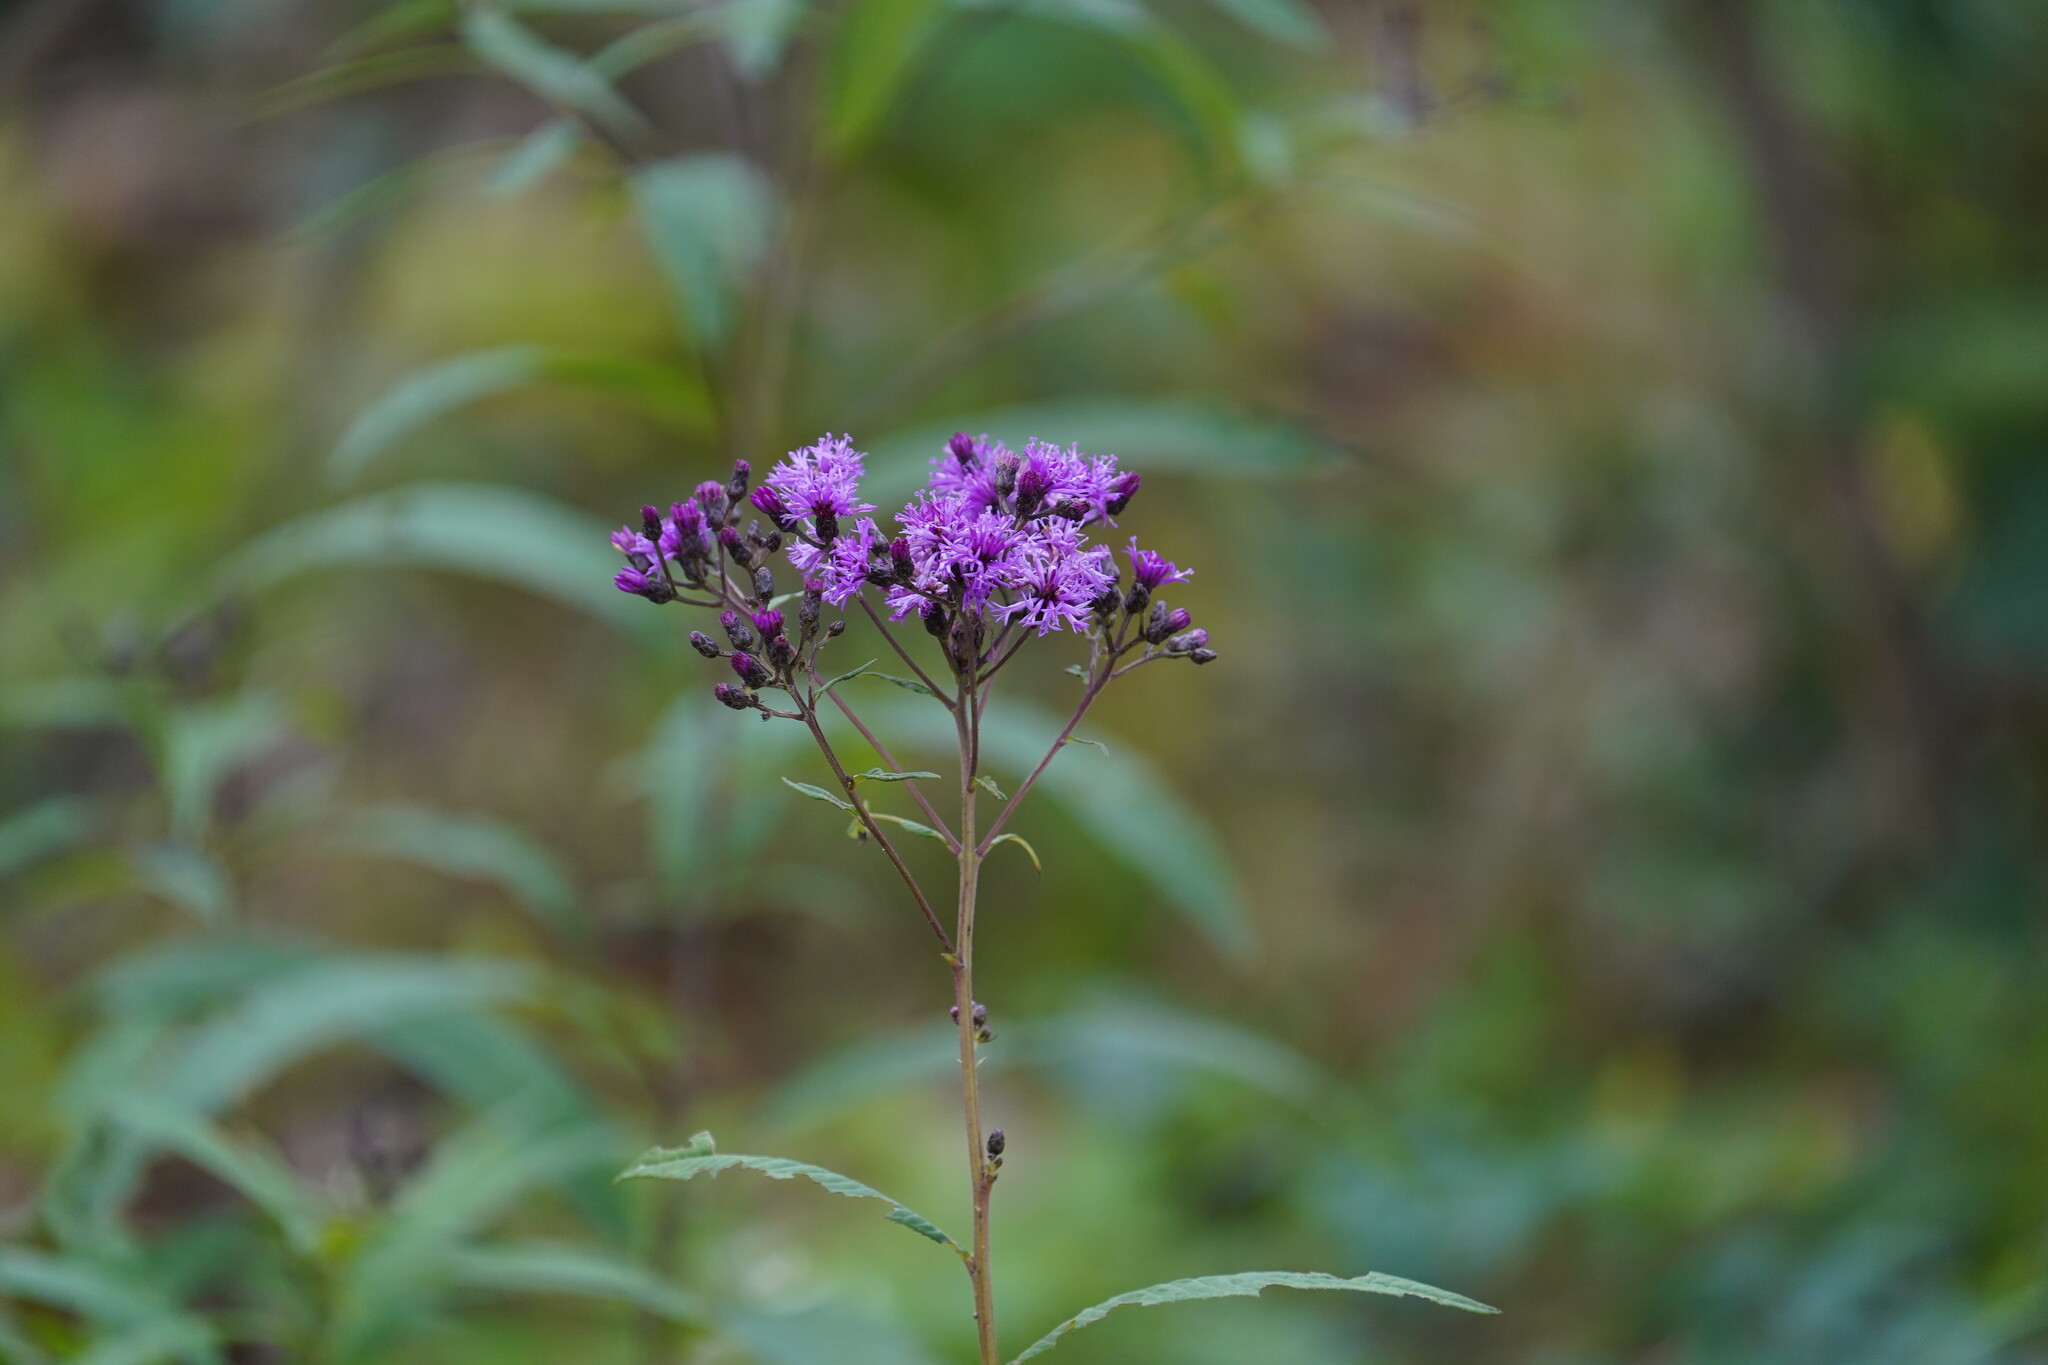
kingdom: Plantae
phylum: Tracheophyta
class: Magnoliopsida
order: Asterales
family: Asteraceae
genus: Vernonia
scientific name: Vernonia gigantea
